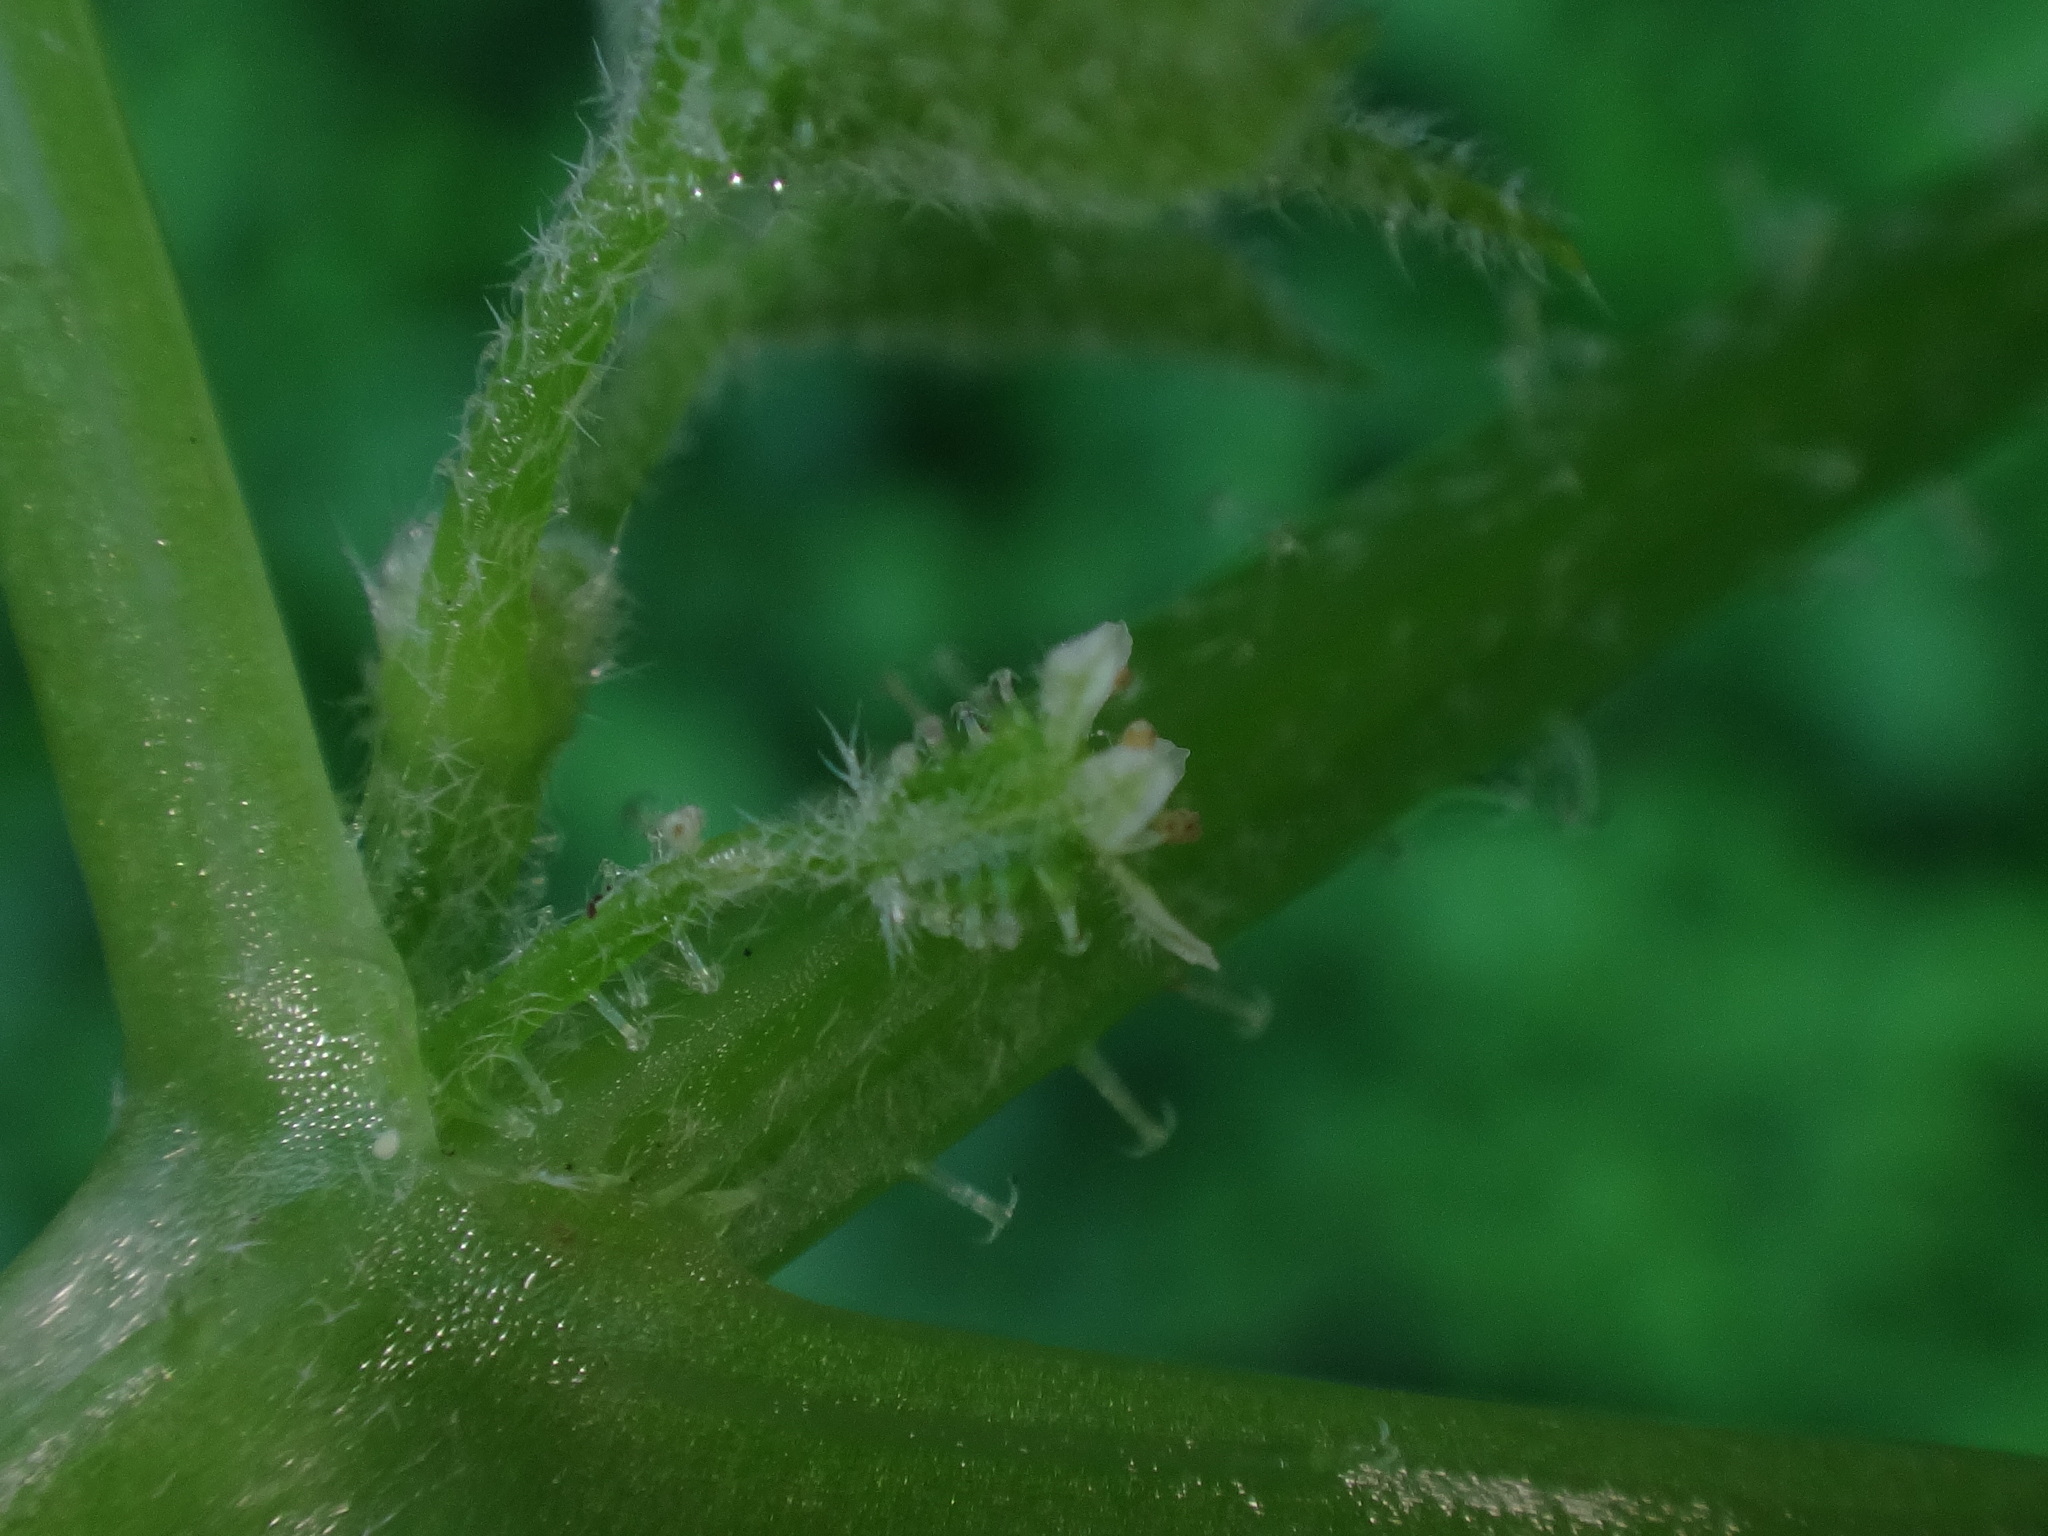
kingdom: Plantae
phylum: Tracheophyta
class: Magnoliopsida
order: Apiales
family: Apiaceae
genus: Drusa
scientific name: Drusa glandulosa
